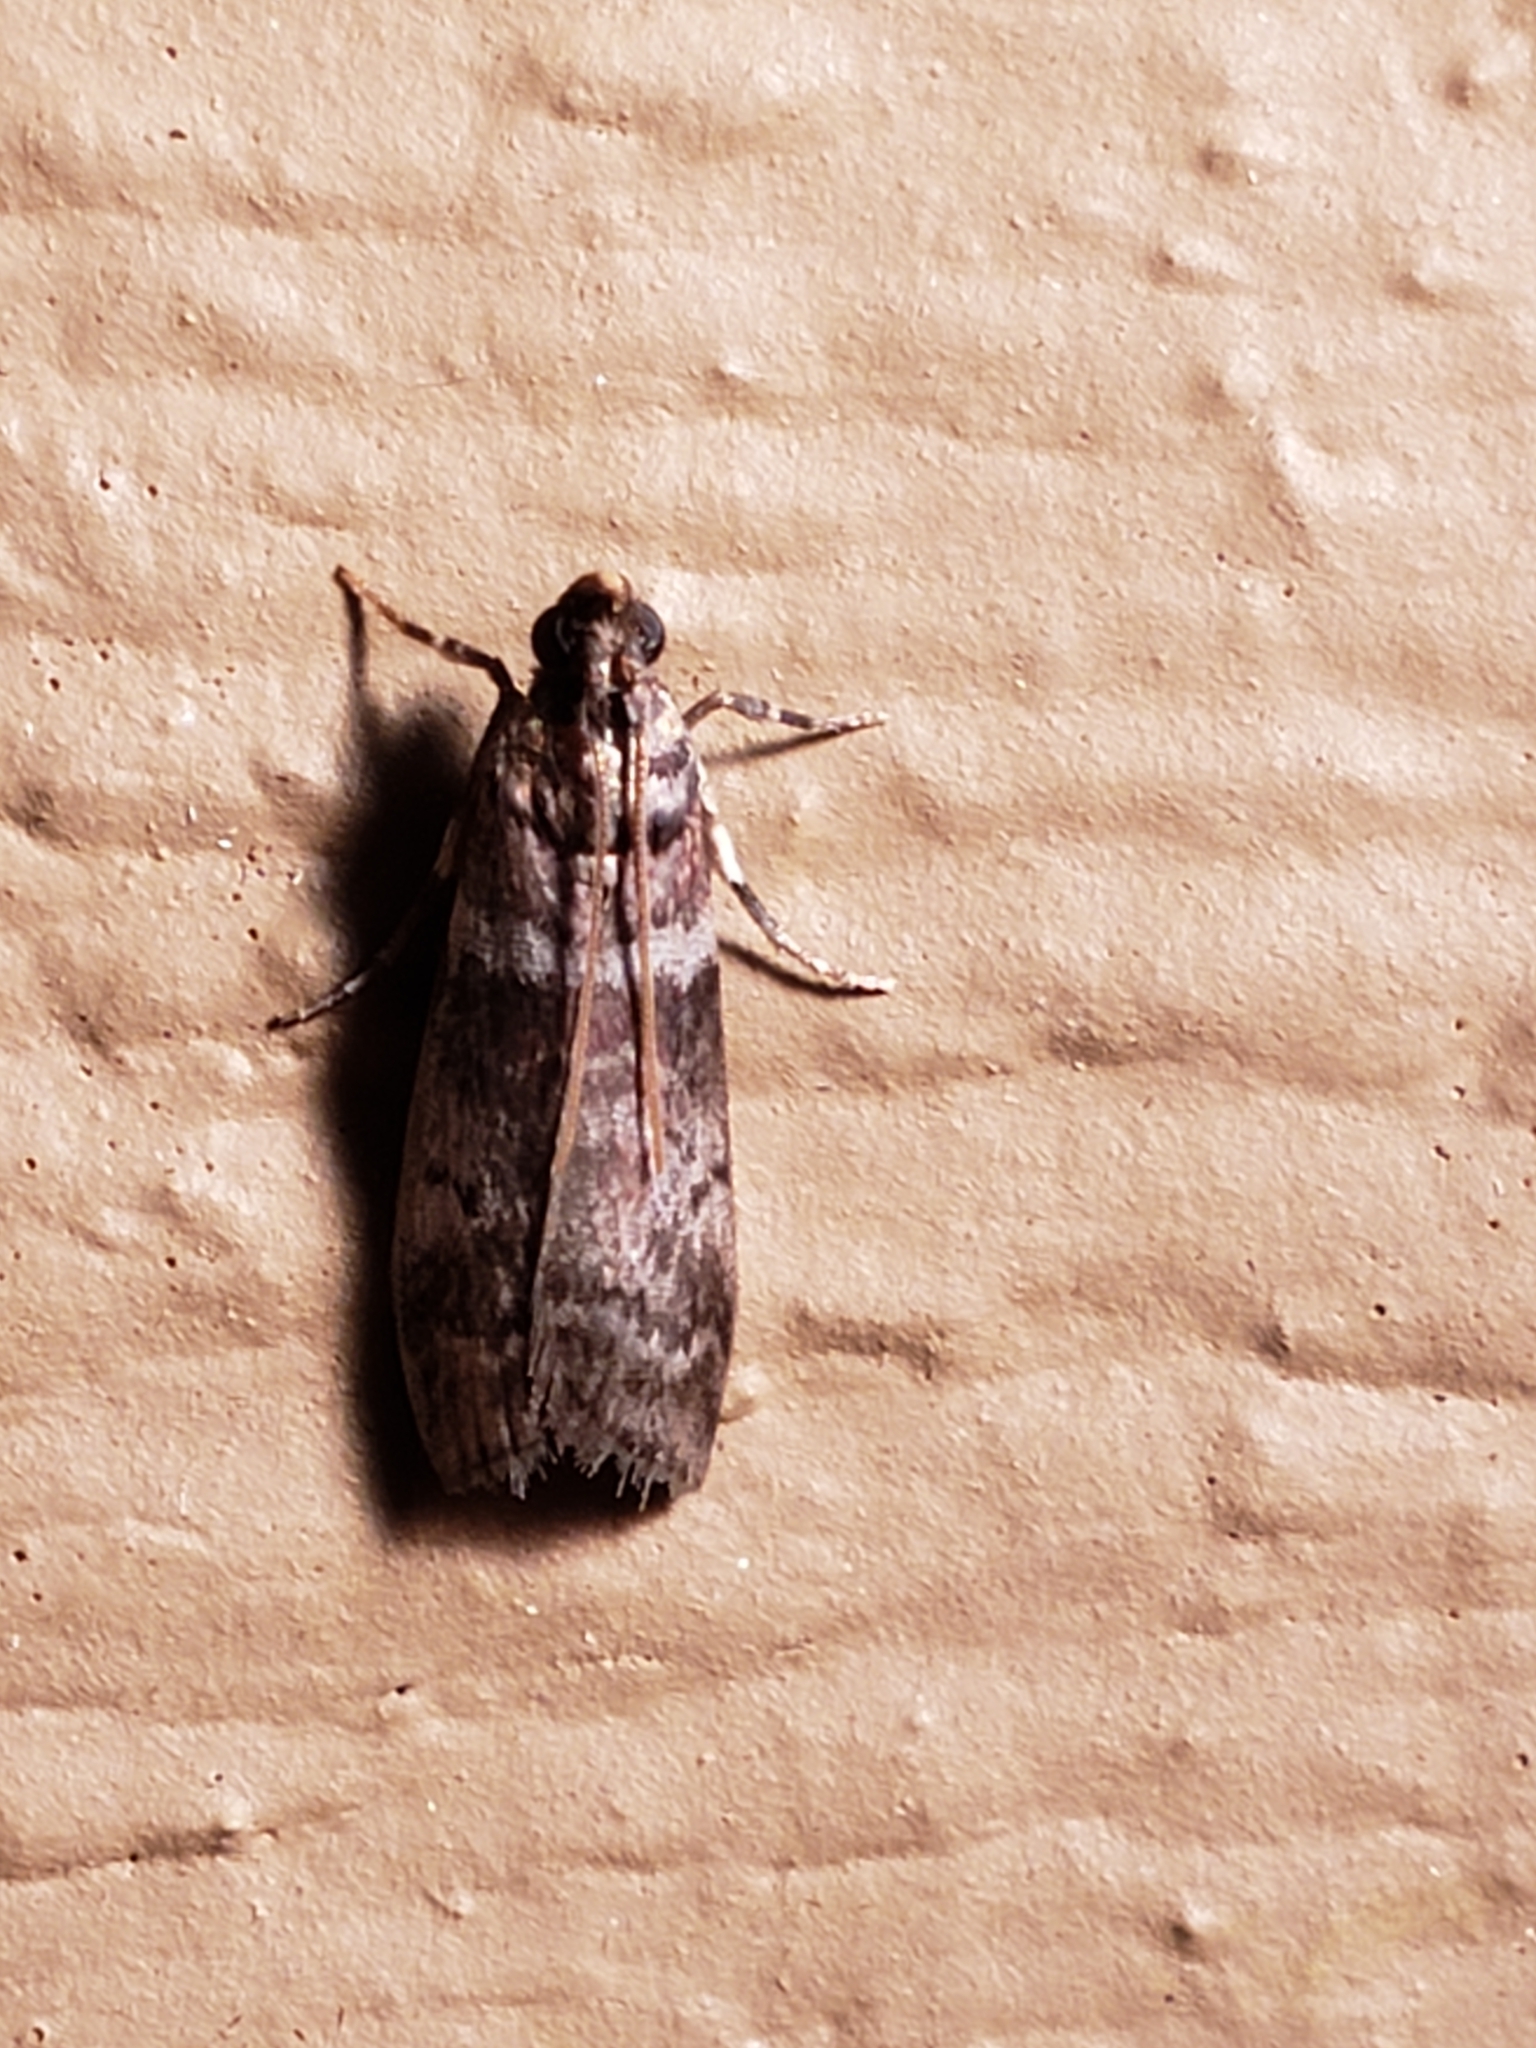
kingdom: Animalia
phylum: Arthropoda
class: Insecta
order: Lepidoptera
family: Pyralidae
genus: Sciota
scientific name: Sciota uvinella
